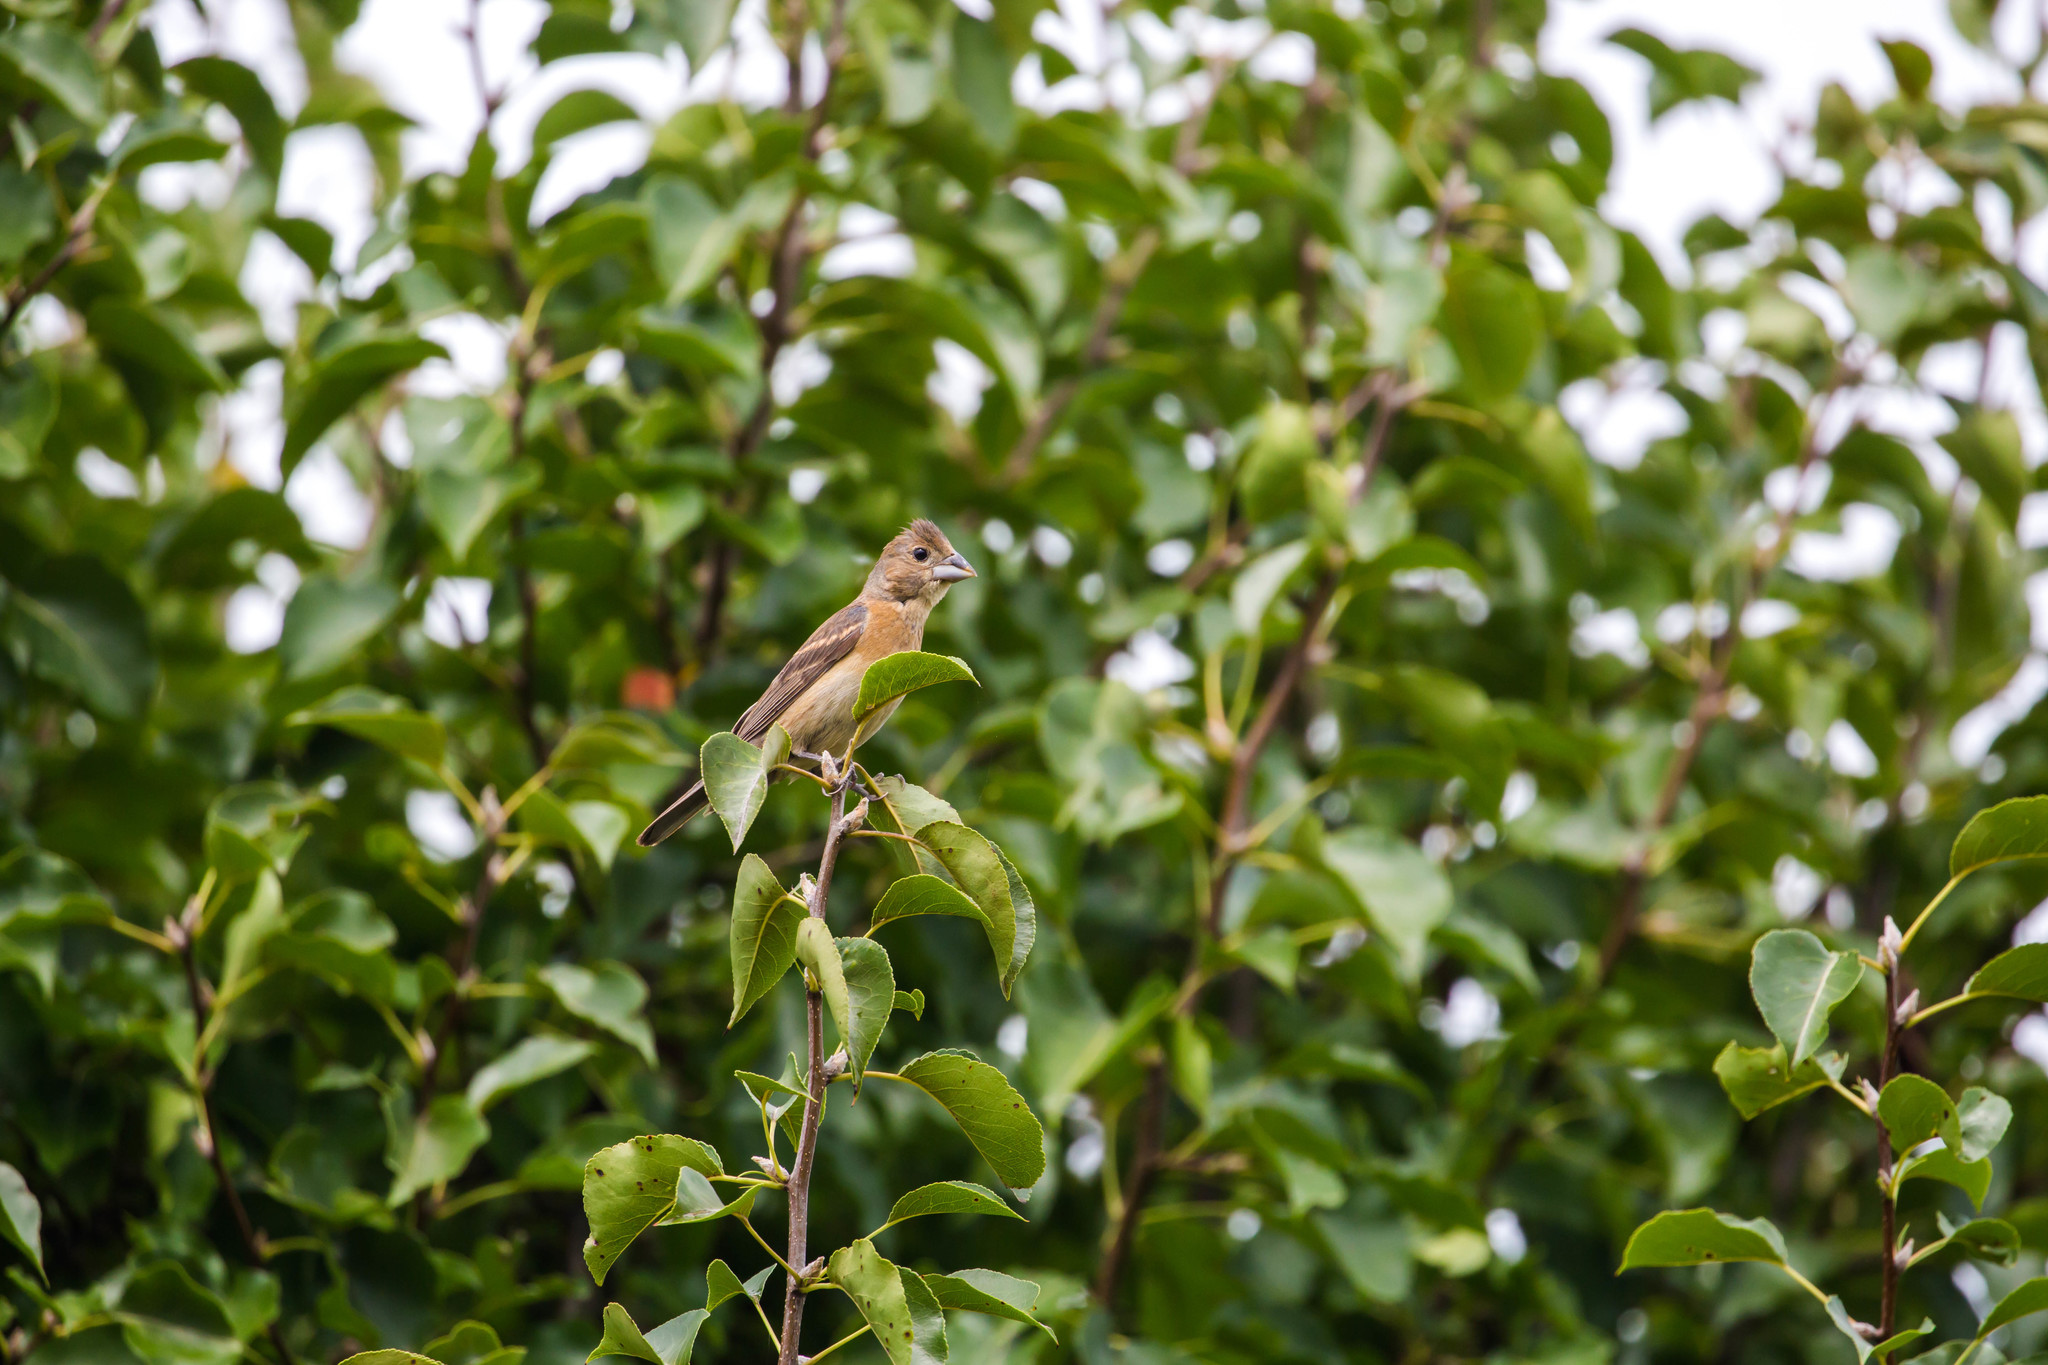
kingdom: Animalia
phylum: Chordata
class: Aves
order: Passeriformes
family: Cardinalidae
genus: Passerina
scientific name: Passerina caerulea
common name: Blue grosbeak
